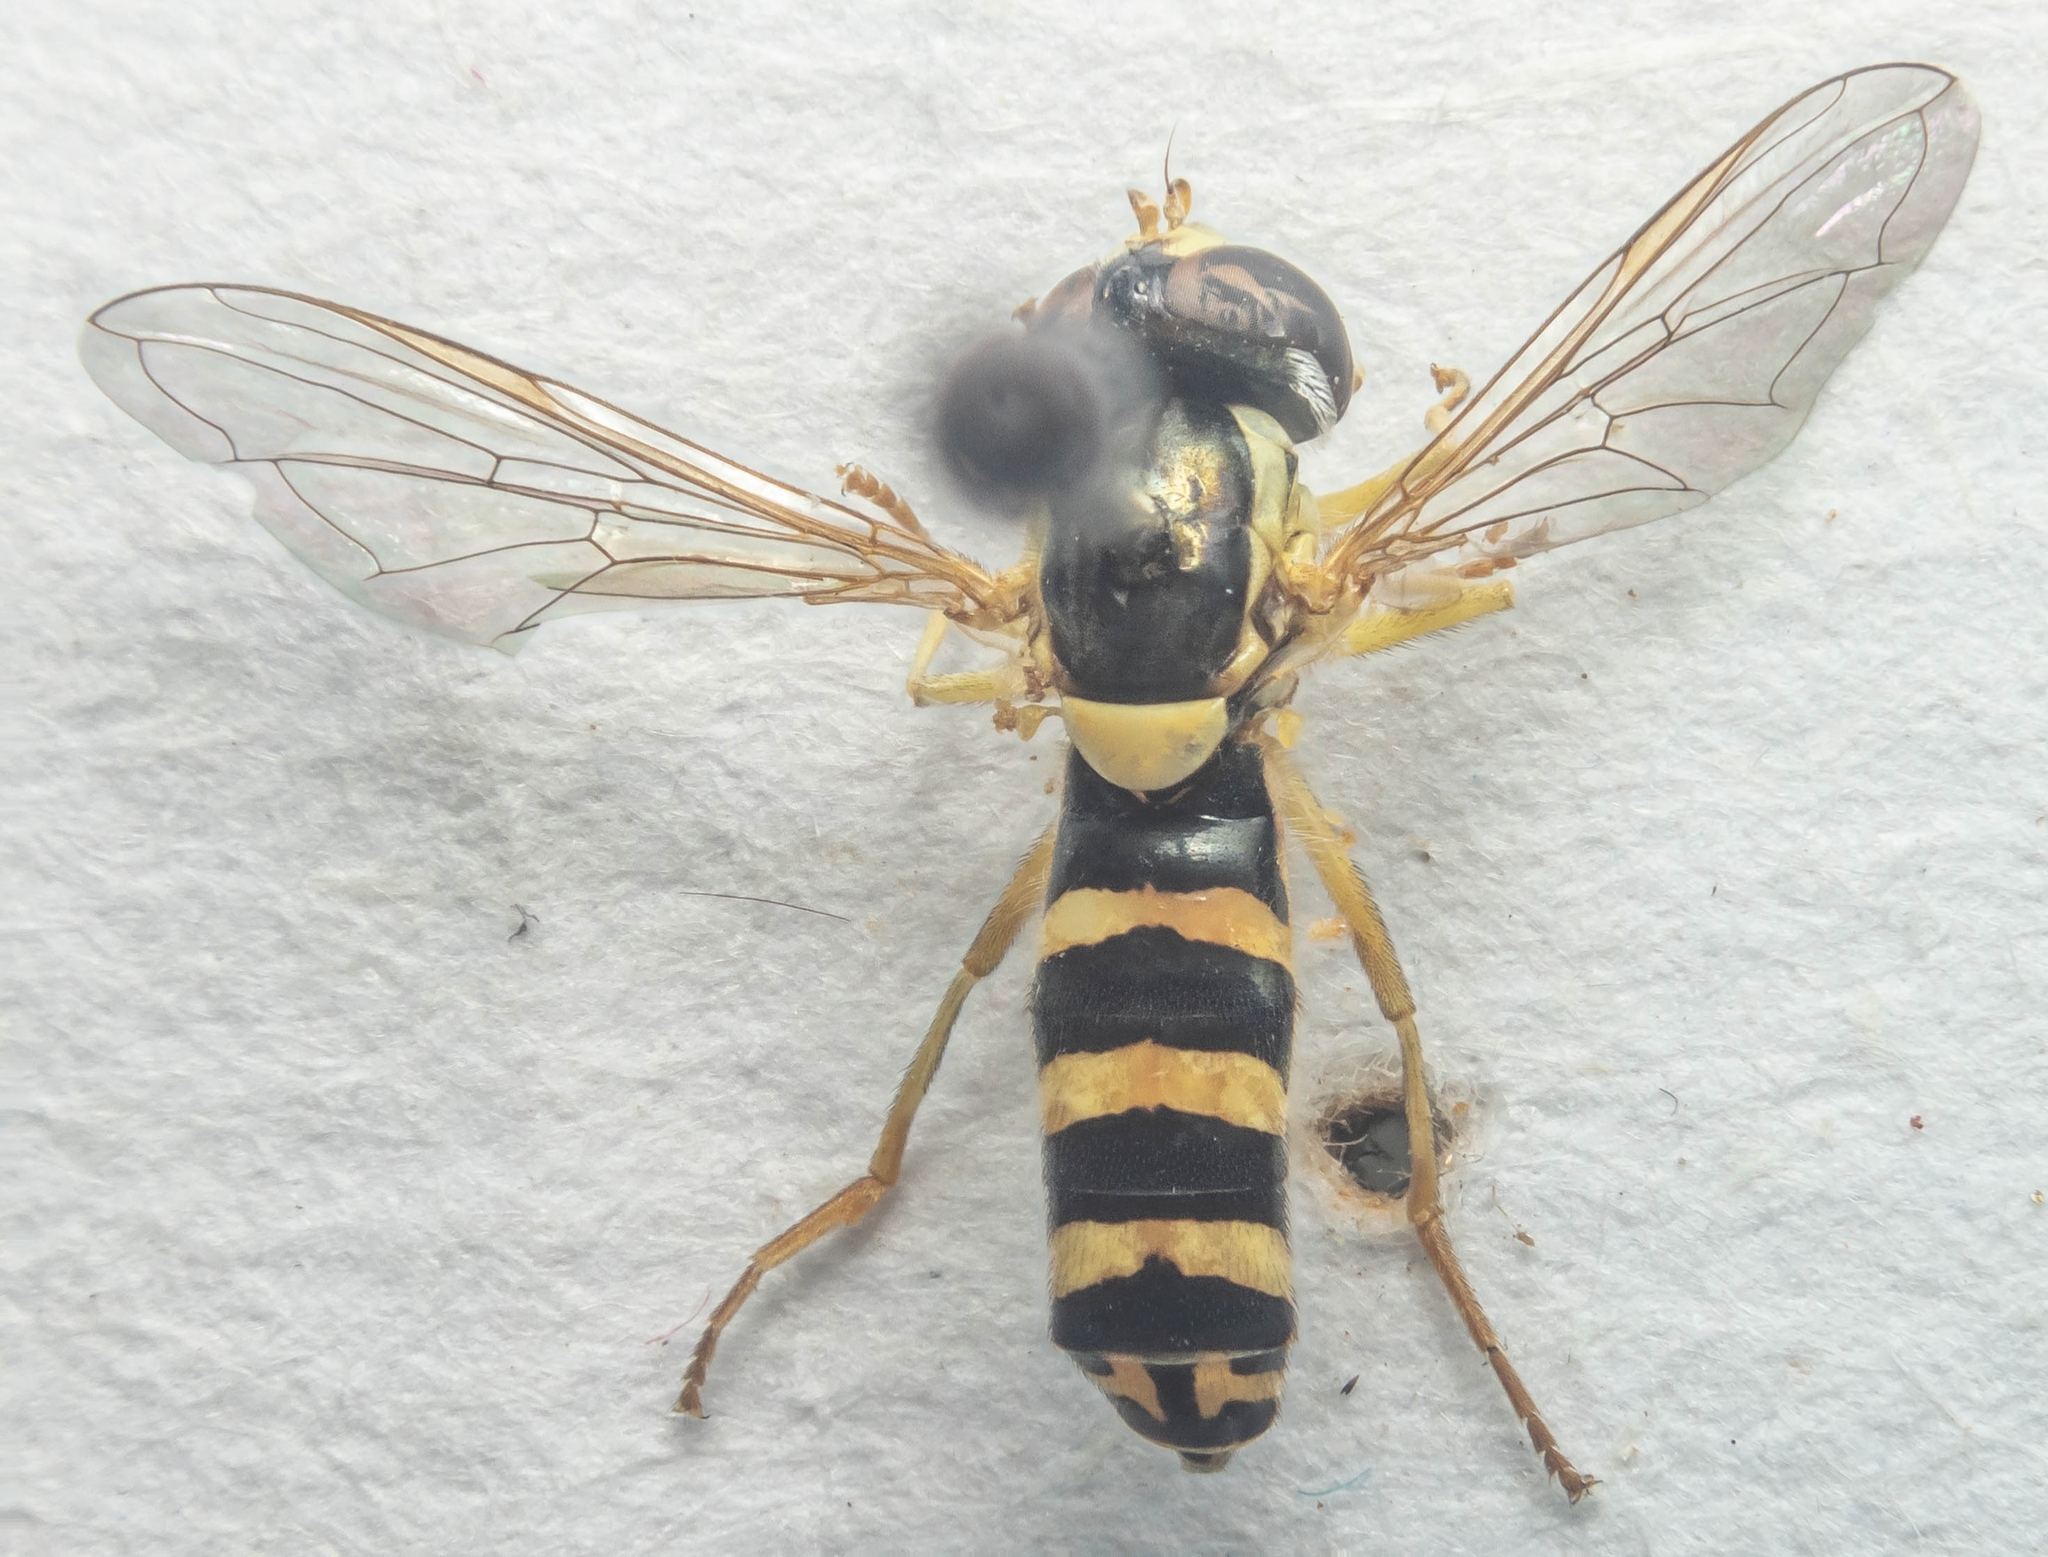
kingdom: Animalia
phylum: Arthropoda
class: Insecta
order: Diptera
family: Syrphidae
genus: Sphaerophoria
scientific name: Sphaerophoria
